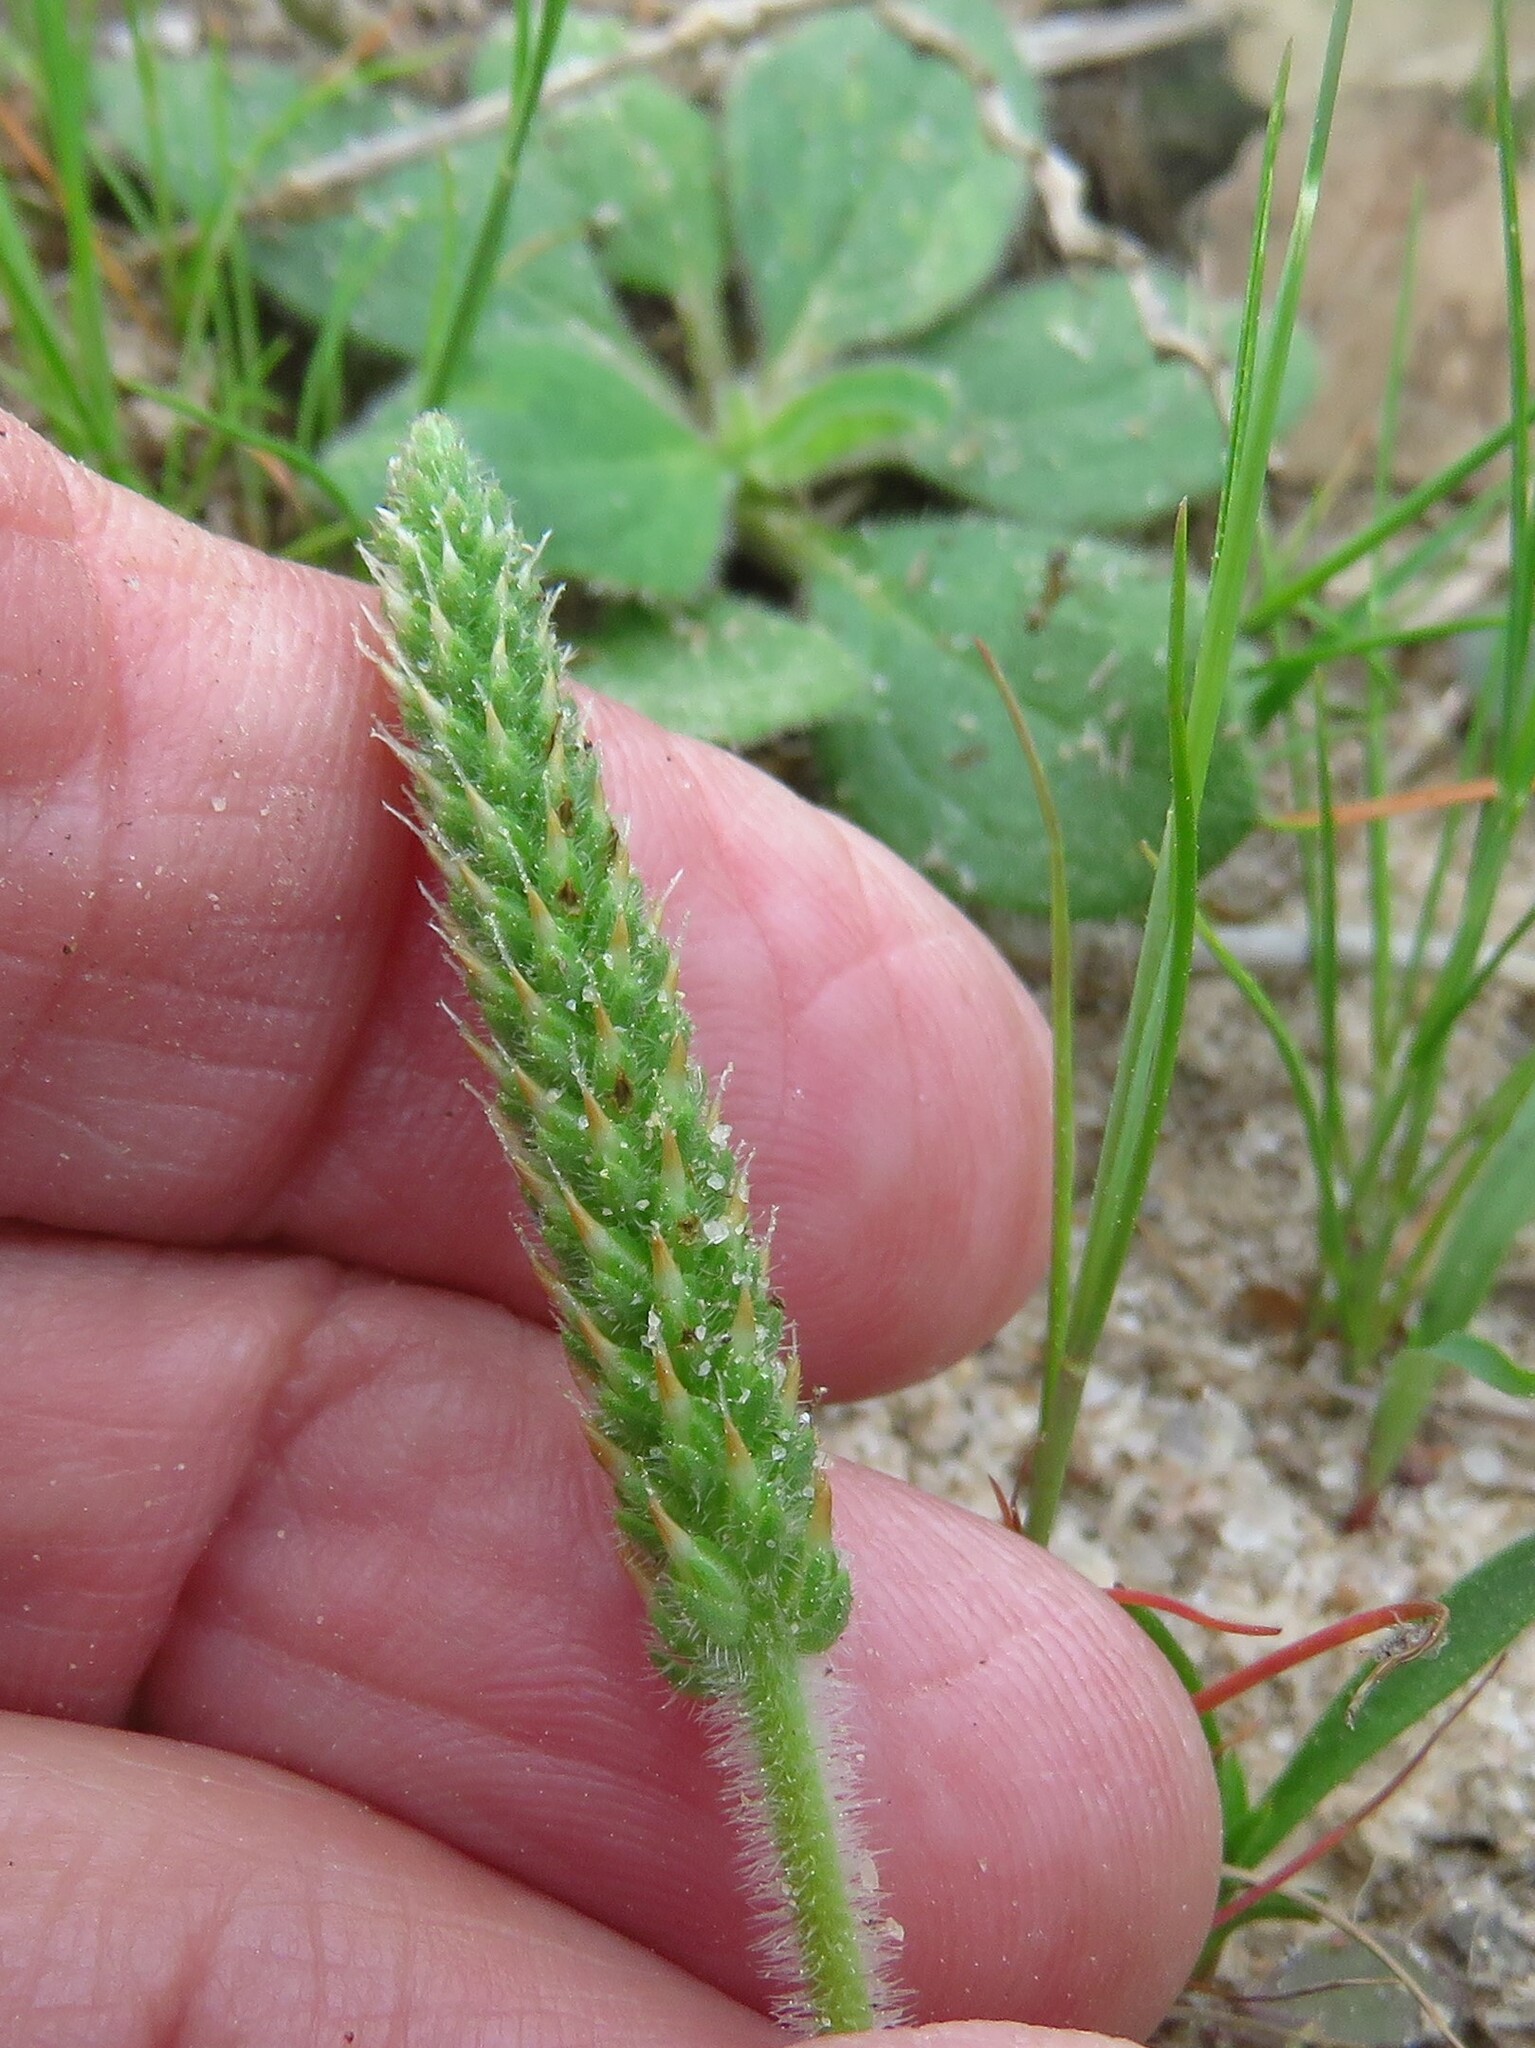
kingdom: Plantae
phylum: Tracheophyta
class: Magnoliopsida
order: Lamiales
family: Plantaginaceae
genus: Plantago
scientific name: Plantago rhodosperma
